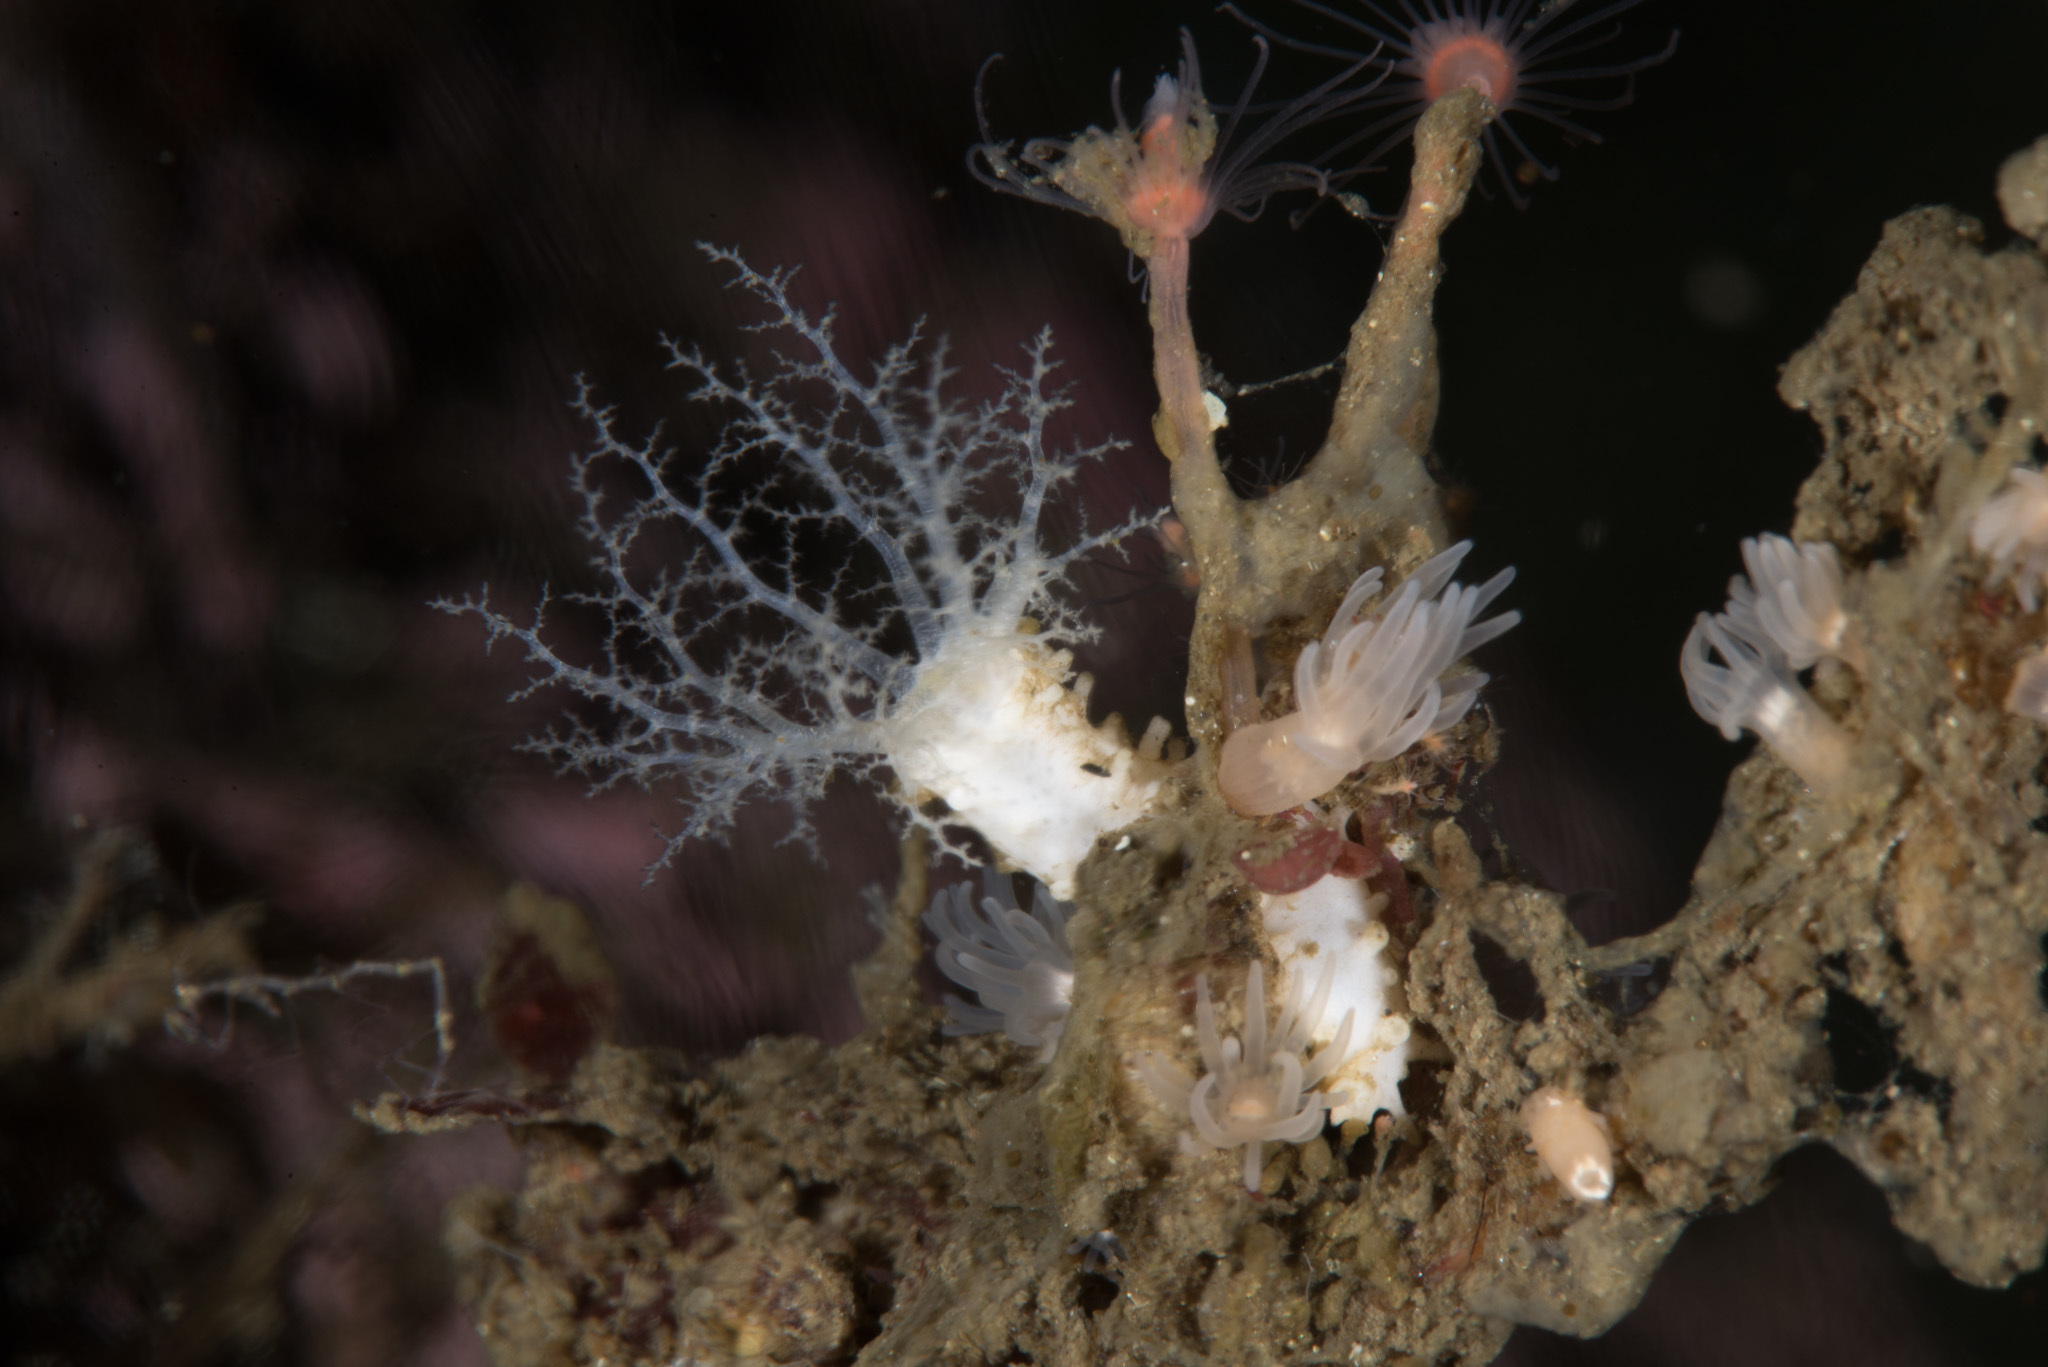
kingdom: Animalia
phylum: Echinodermata
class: Holothuroidea
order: Dendrochirotida
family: Cucumariidae
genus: Ocnus
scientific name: Ocnus lacteus
